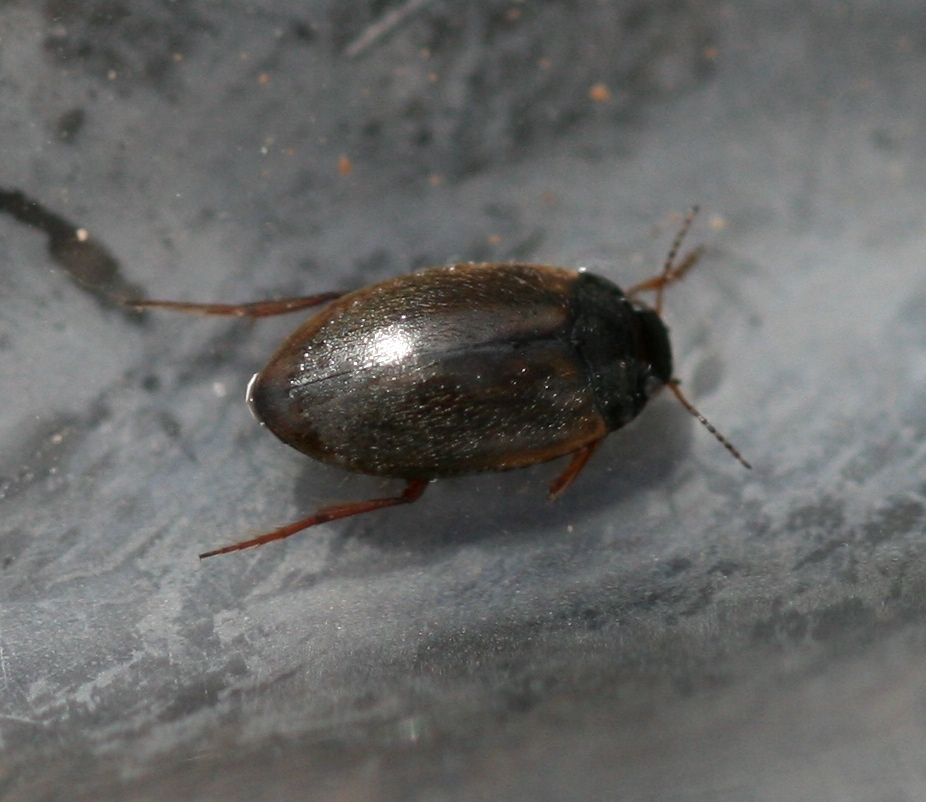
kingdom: Animalia
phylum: Arthropoda
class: Insecta
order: Coleoptera
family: Dytiscidae
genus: Hydroporus
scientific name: Hydroporus planus
